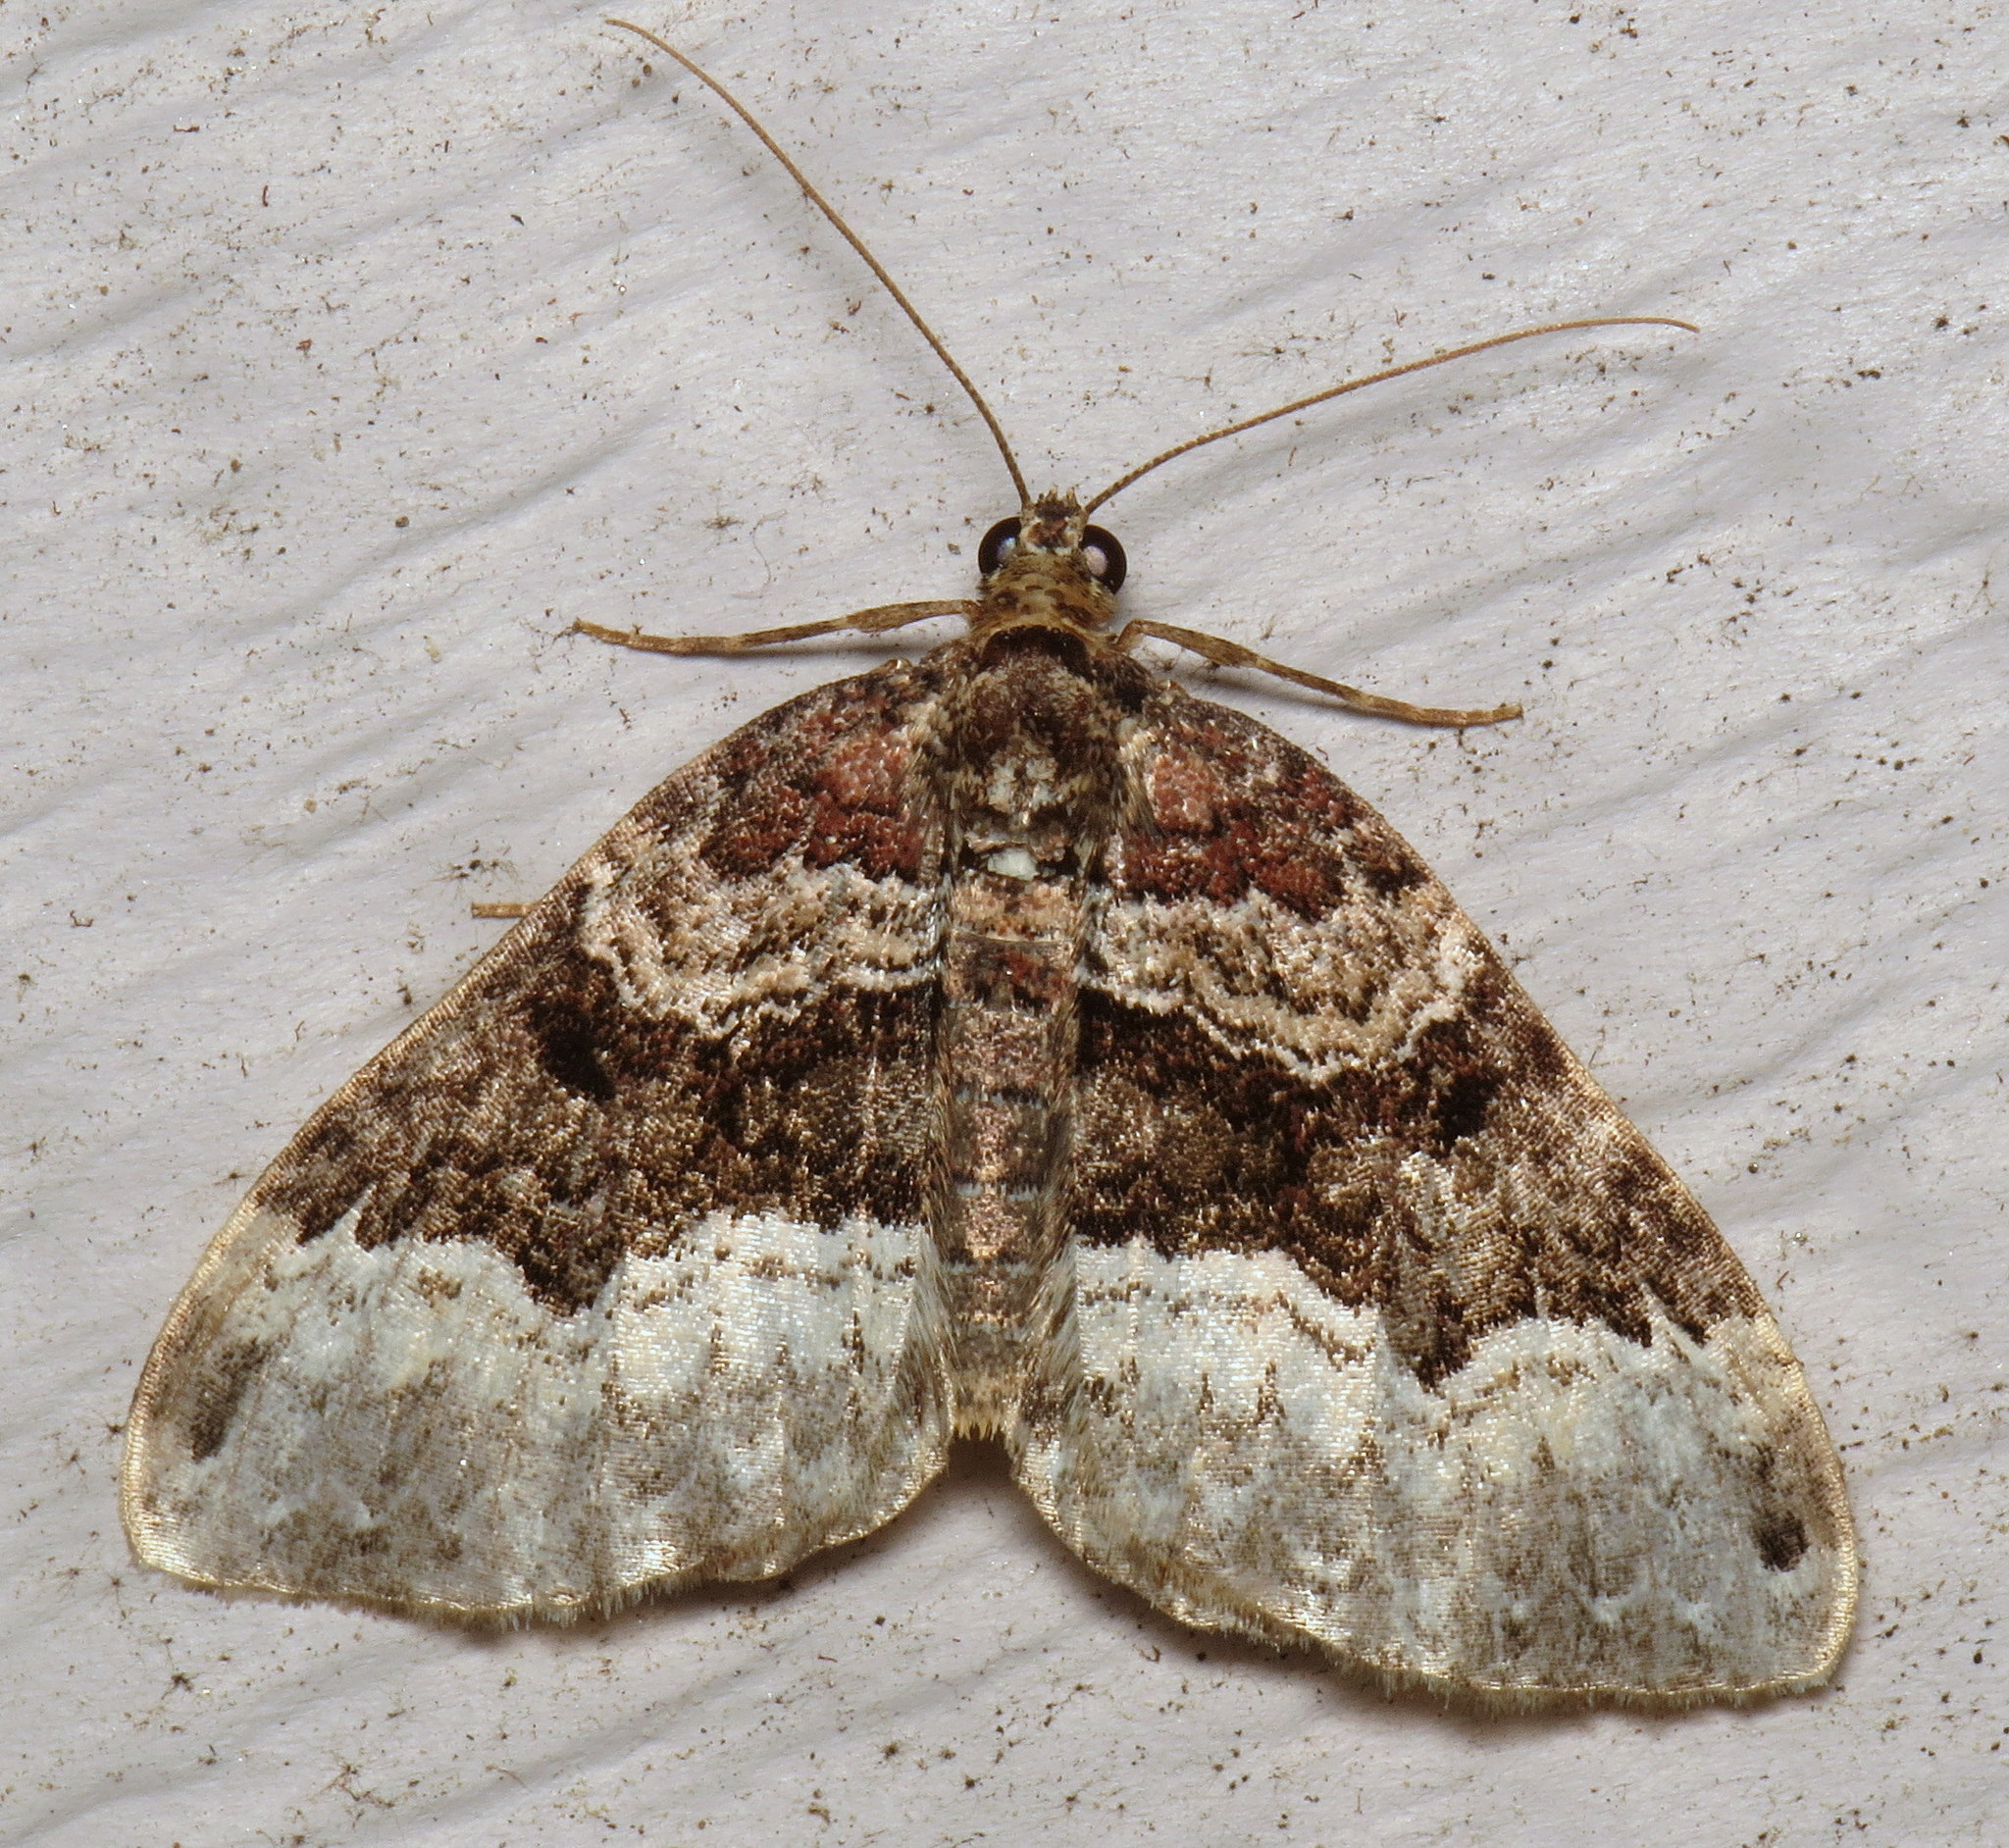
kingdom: Animalia
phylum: Arthropoda
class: Insecta
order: Lepidoptera
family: Geometridae
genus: Euphyia
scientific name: Euphyia intermediata
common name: Sharp-angled carpet
